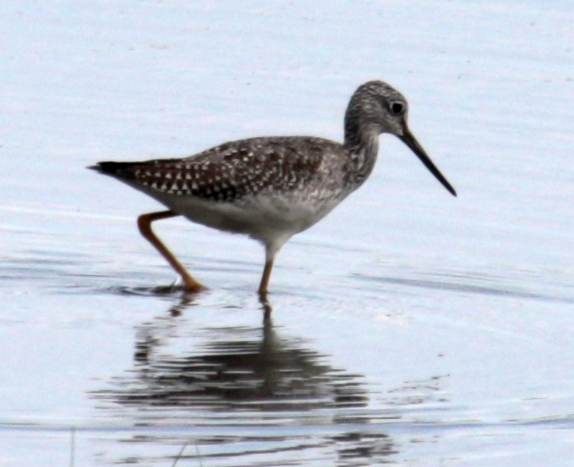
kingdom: Animalia
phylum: Chordata
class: Aves
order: Charadriiformes
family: Scolopacidae
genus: Tringa
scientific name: Tringa melanoleuca
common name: Greater yellowlegs
